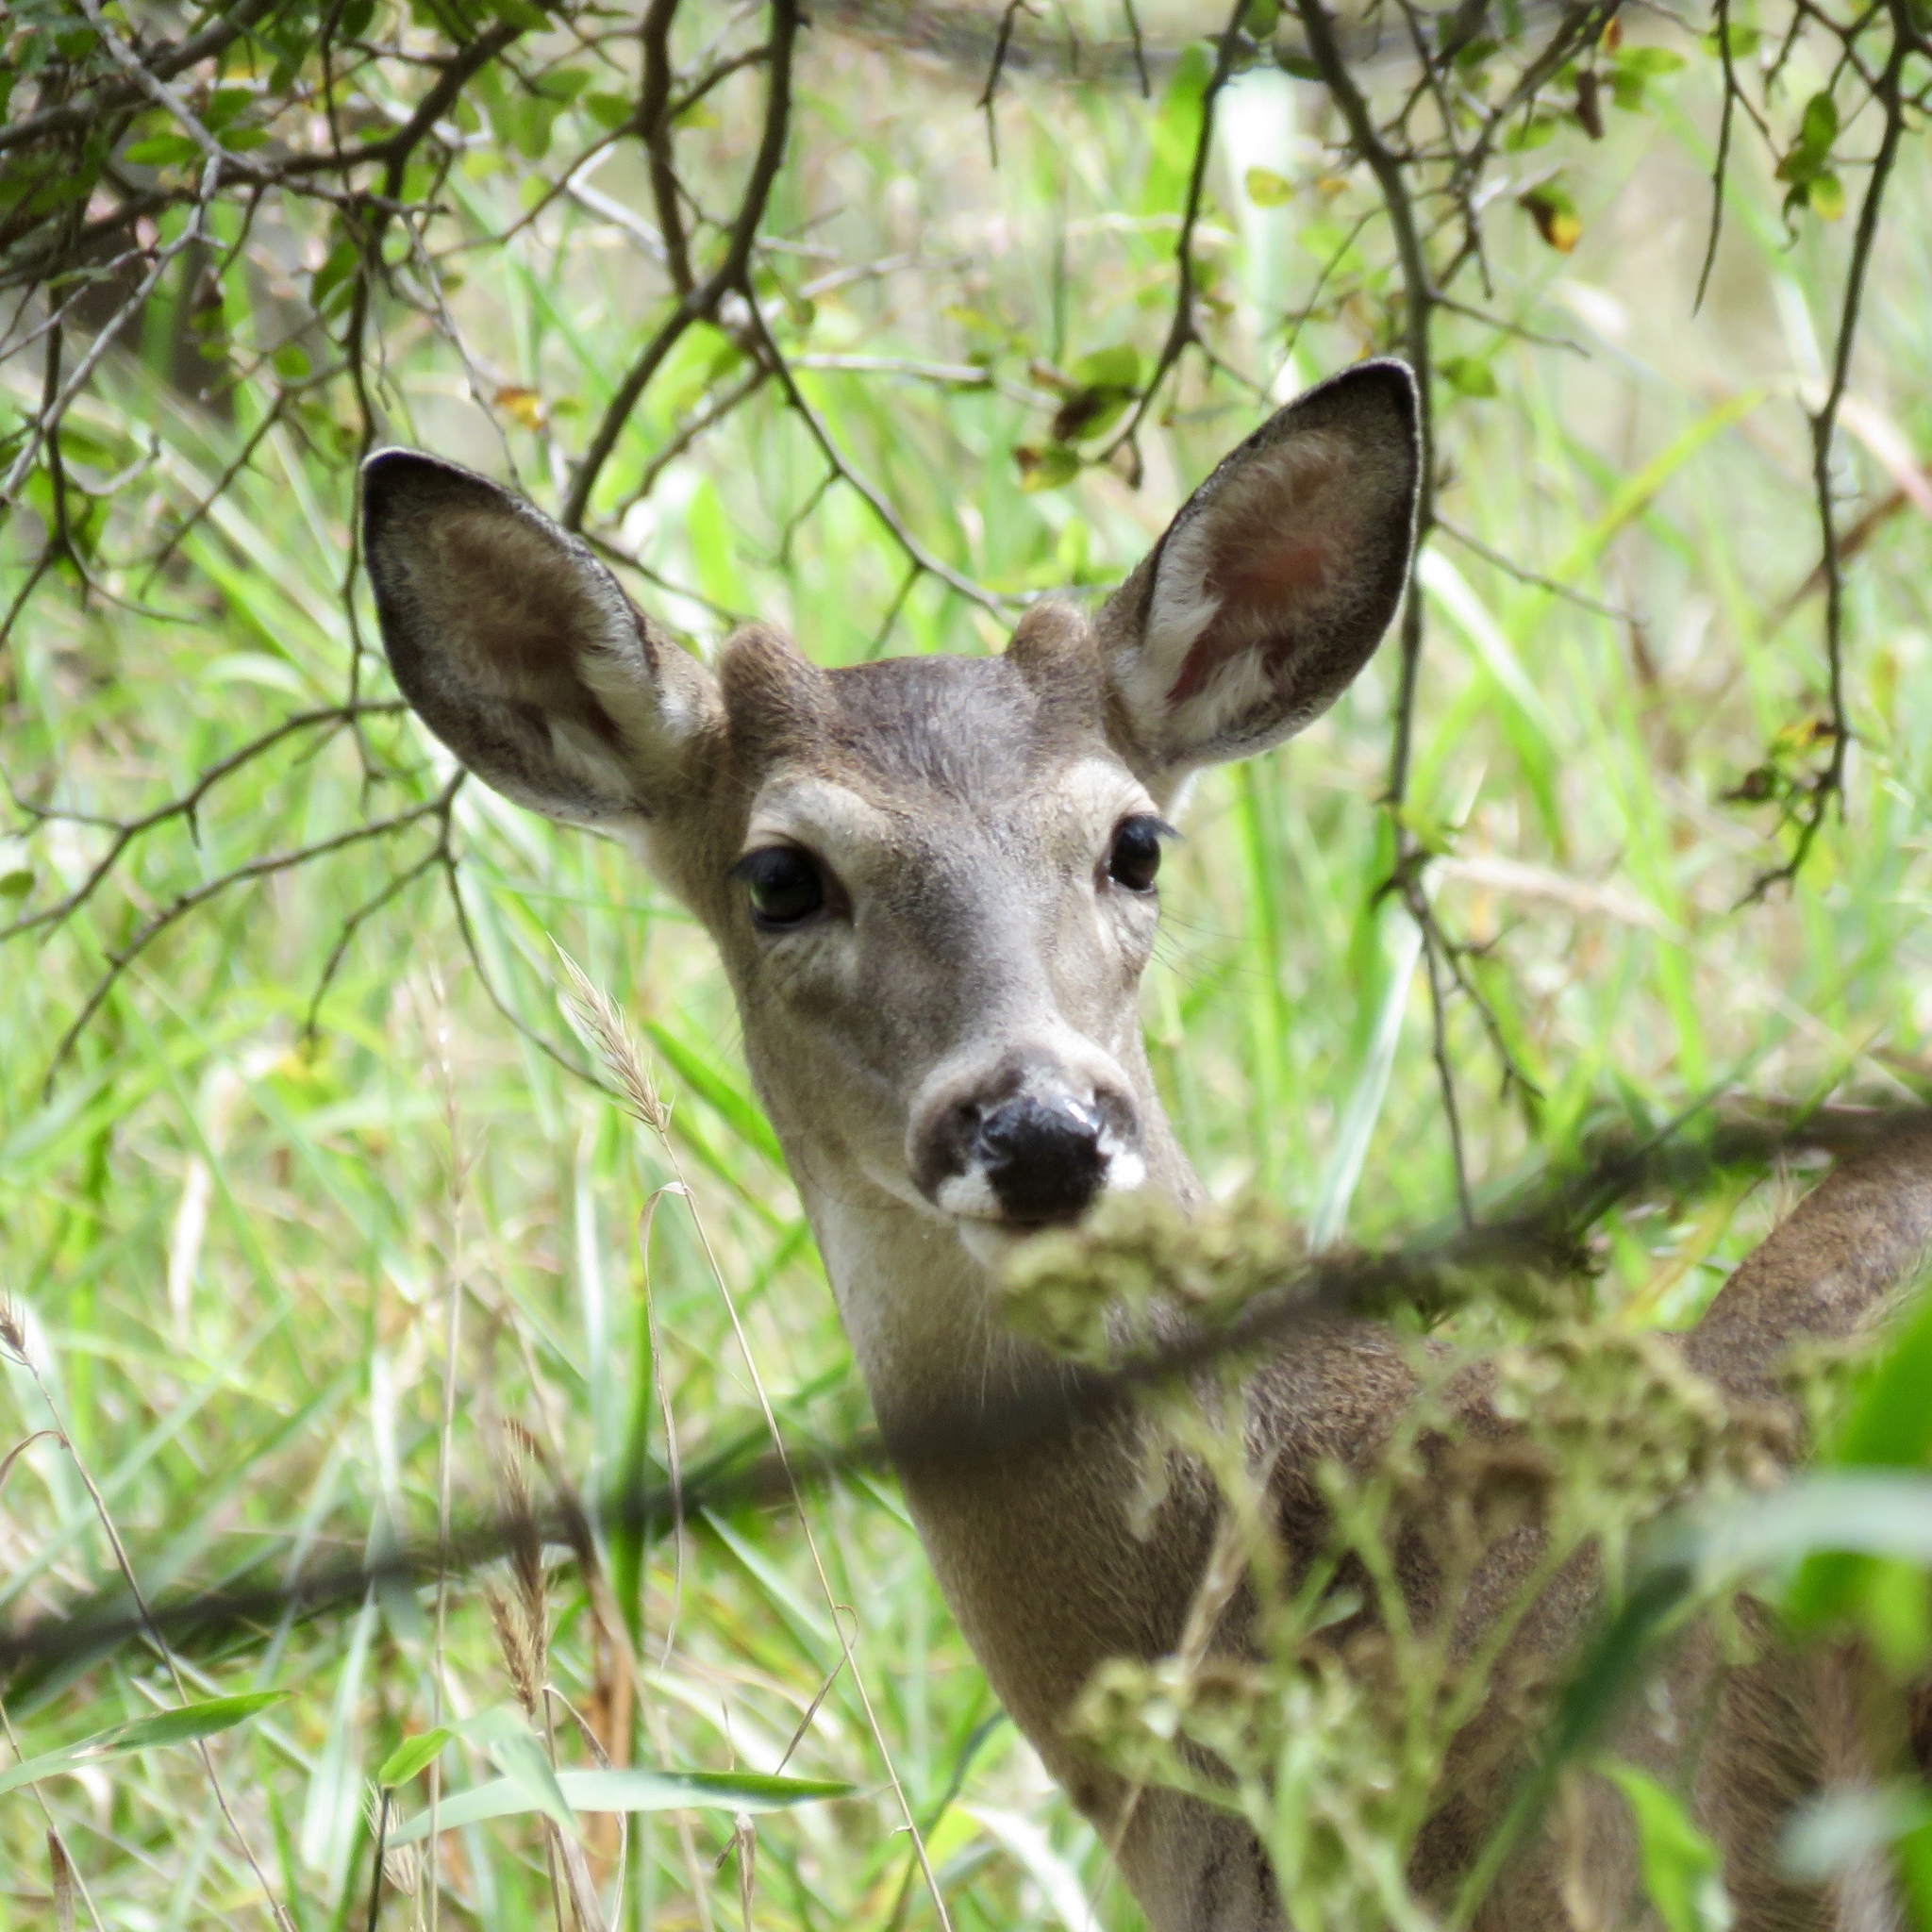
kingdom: Animalia
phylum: Chordata
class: Mammalia
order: Artiodactyla
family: Cervidae
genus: Odocoileus
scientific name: Odocoileus virginianus
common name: White-tailed deer
